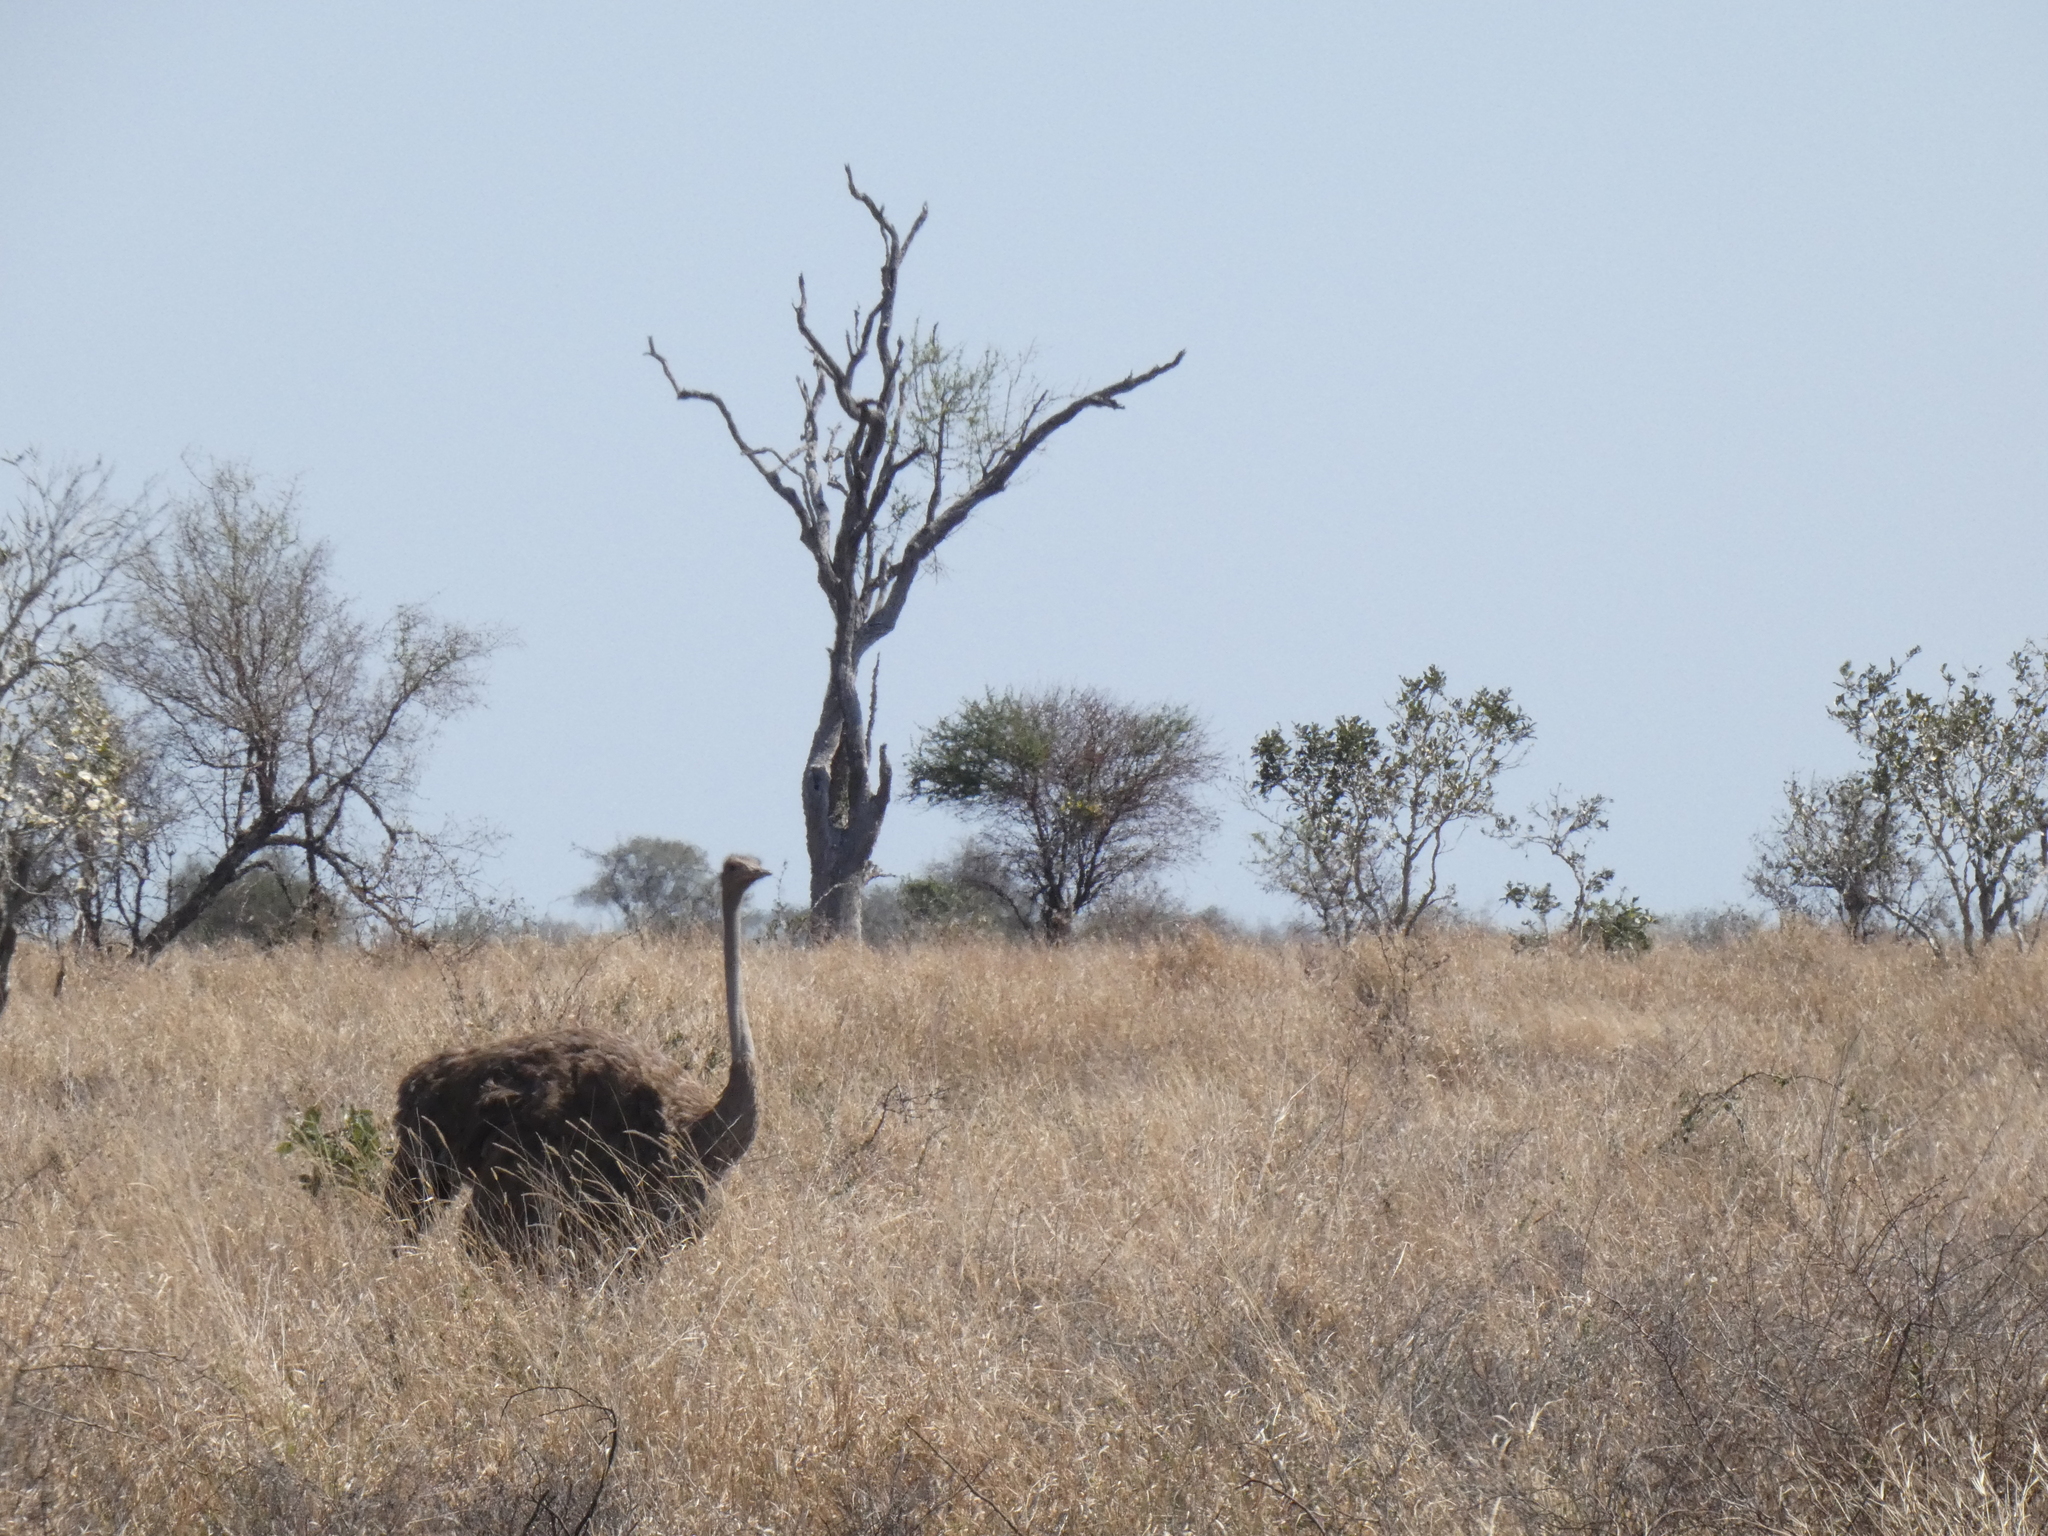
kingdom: Animalia
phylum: Chordata
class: Aves
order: Struthioniformes
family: Struthionidae
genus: Struthio
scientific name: Struthio camelus
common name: Common ostrich
